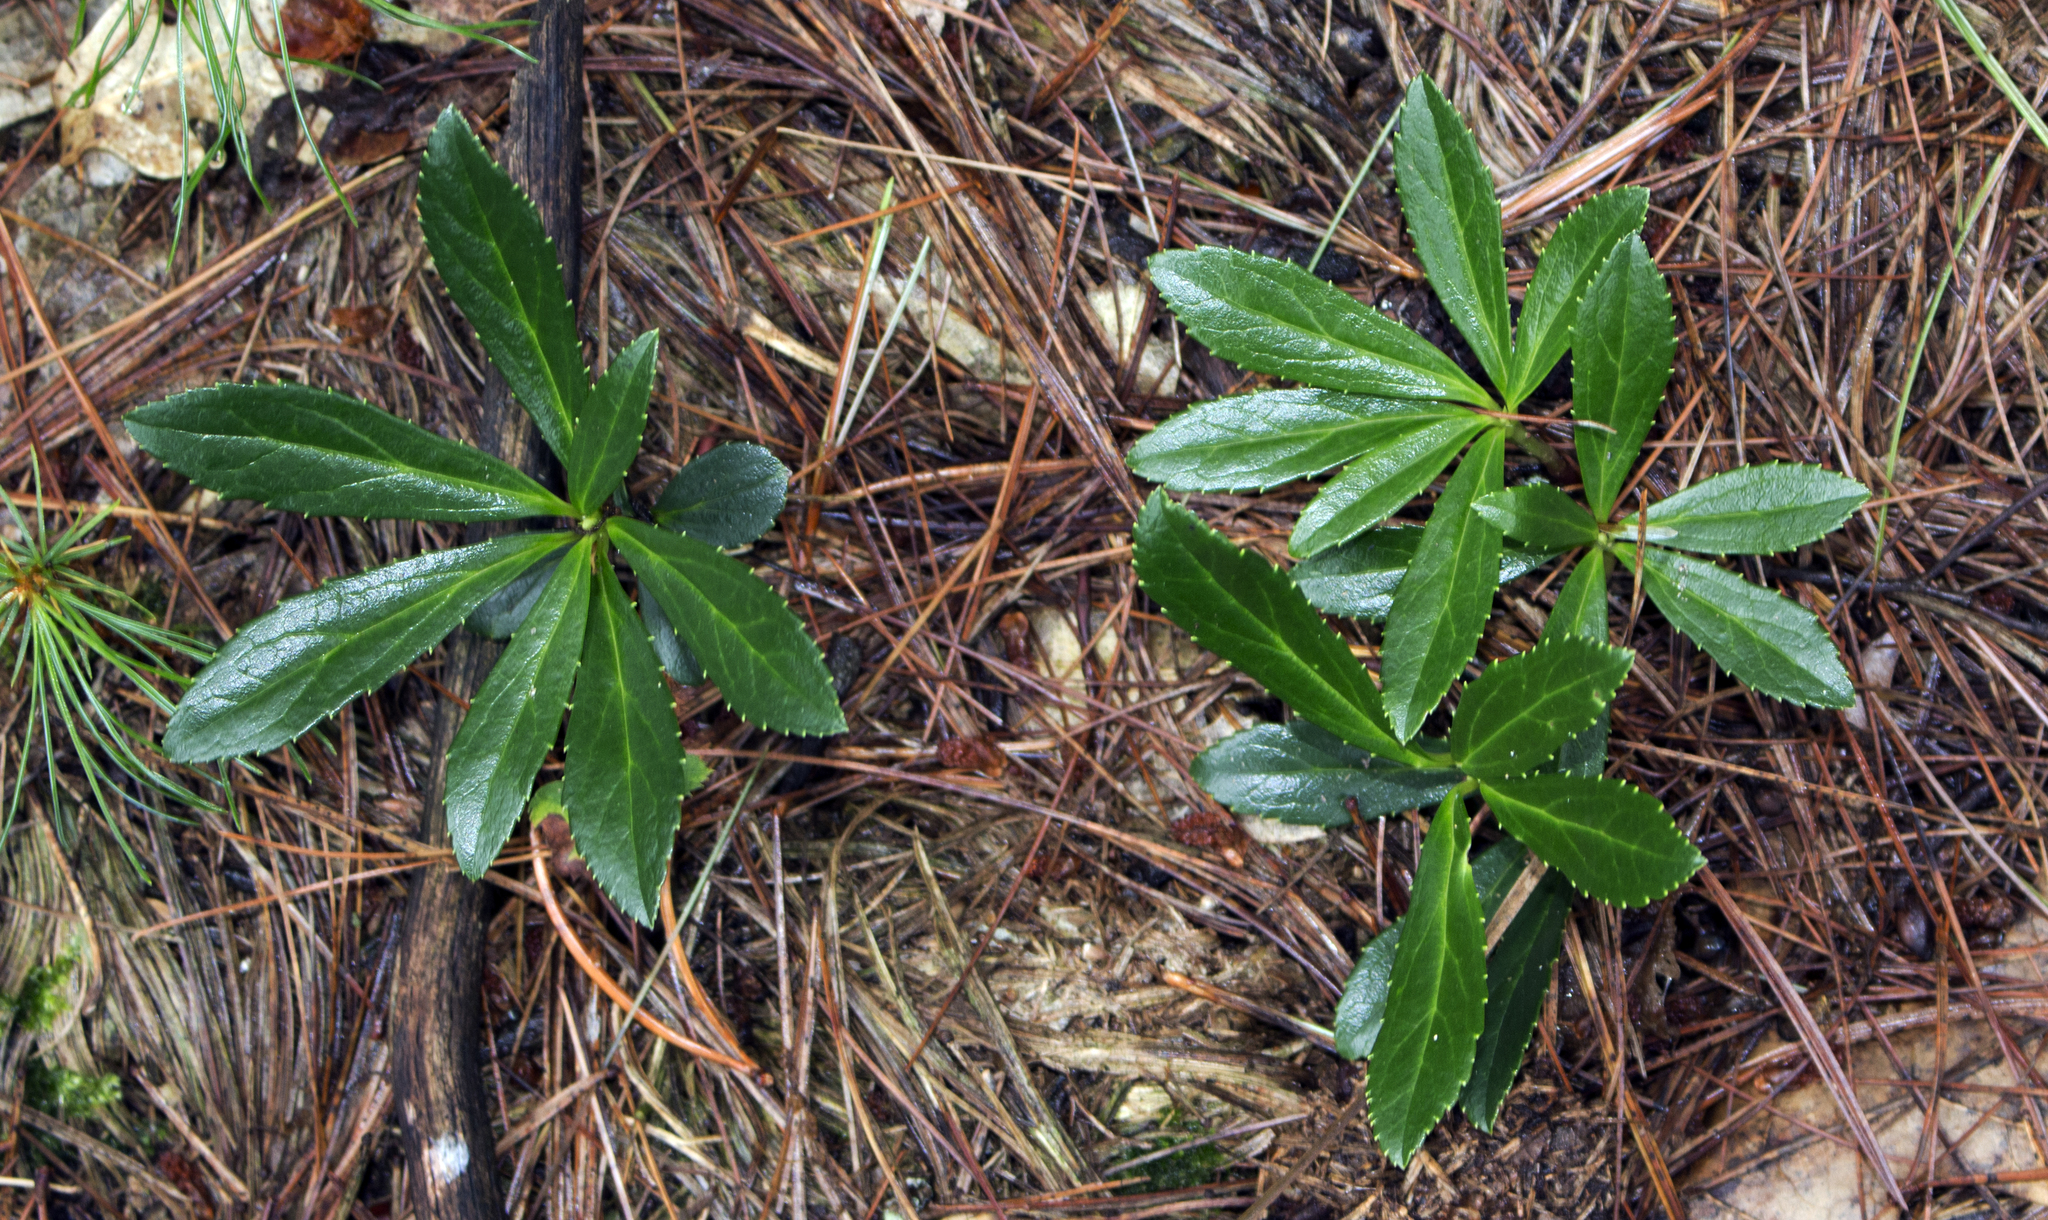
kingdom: Plantae
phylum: Tracheophyta
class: Magnoliopsida
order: Ericales
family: Ericaceae
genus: Chimaphila
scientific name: Chimaphila umbellata
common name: Pipsissewa
